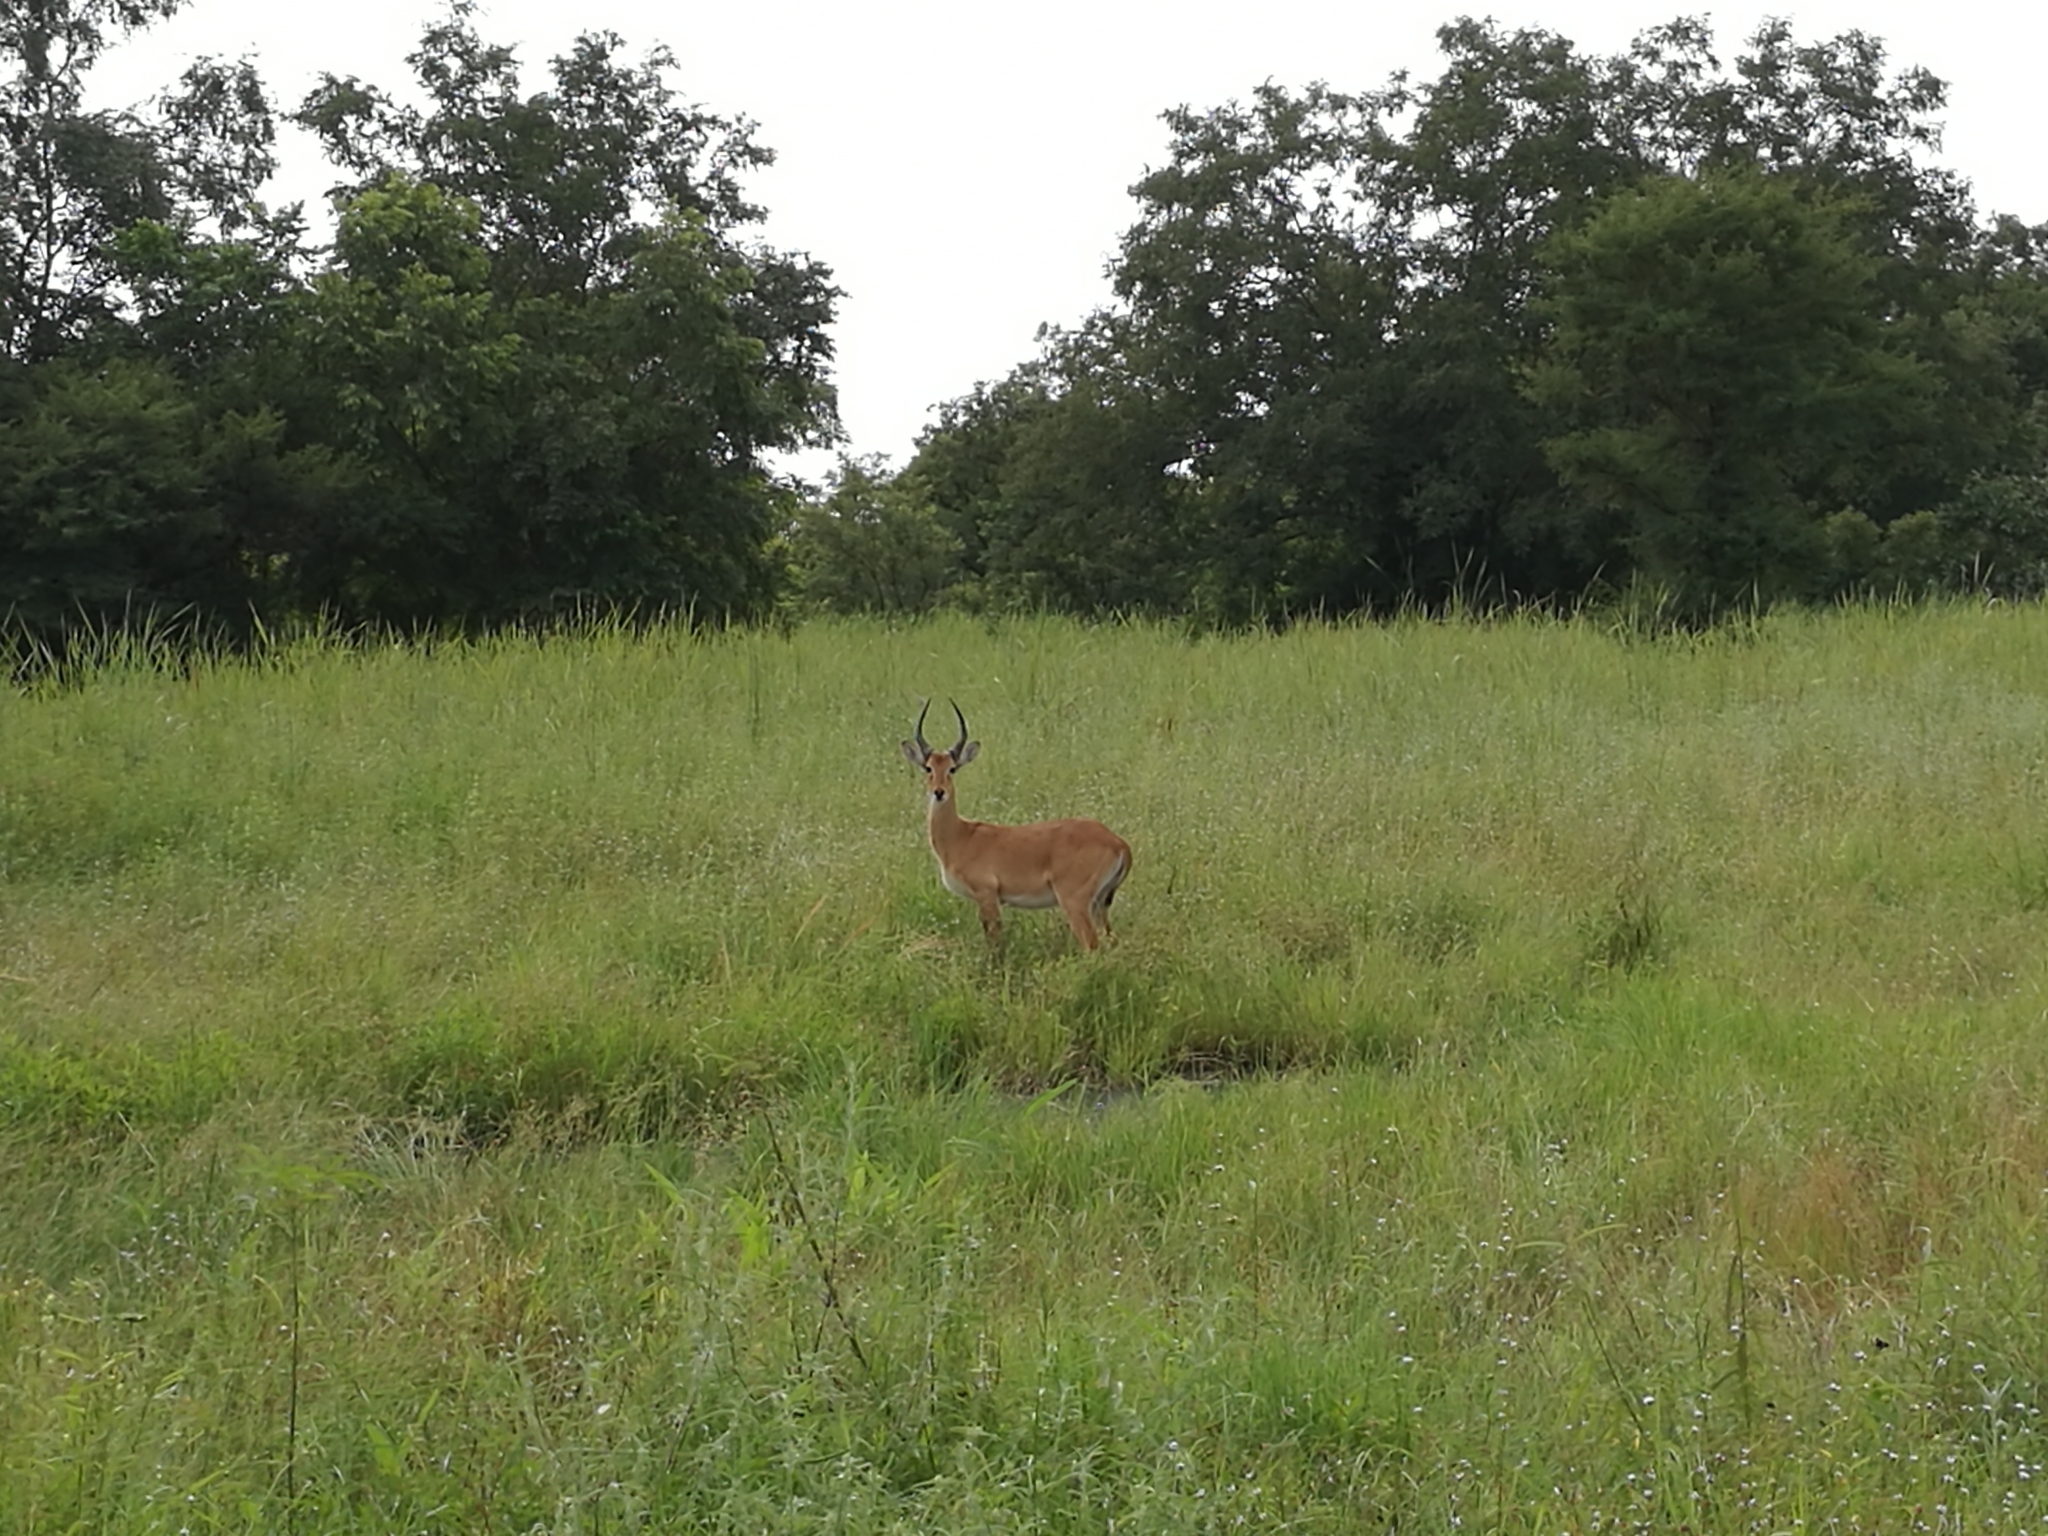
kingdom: Animalia
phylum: Chordata
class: Mammalia
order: Artiodactyla
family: Bovidae
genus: Kobus
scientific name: Kobus kob
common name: Kob
